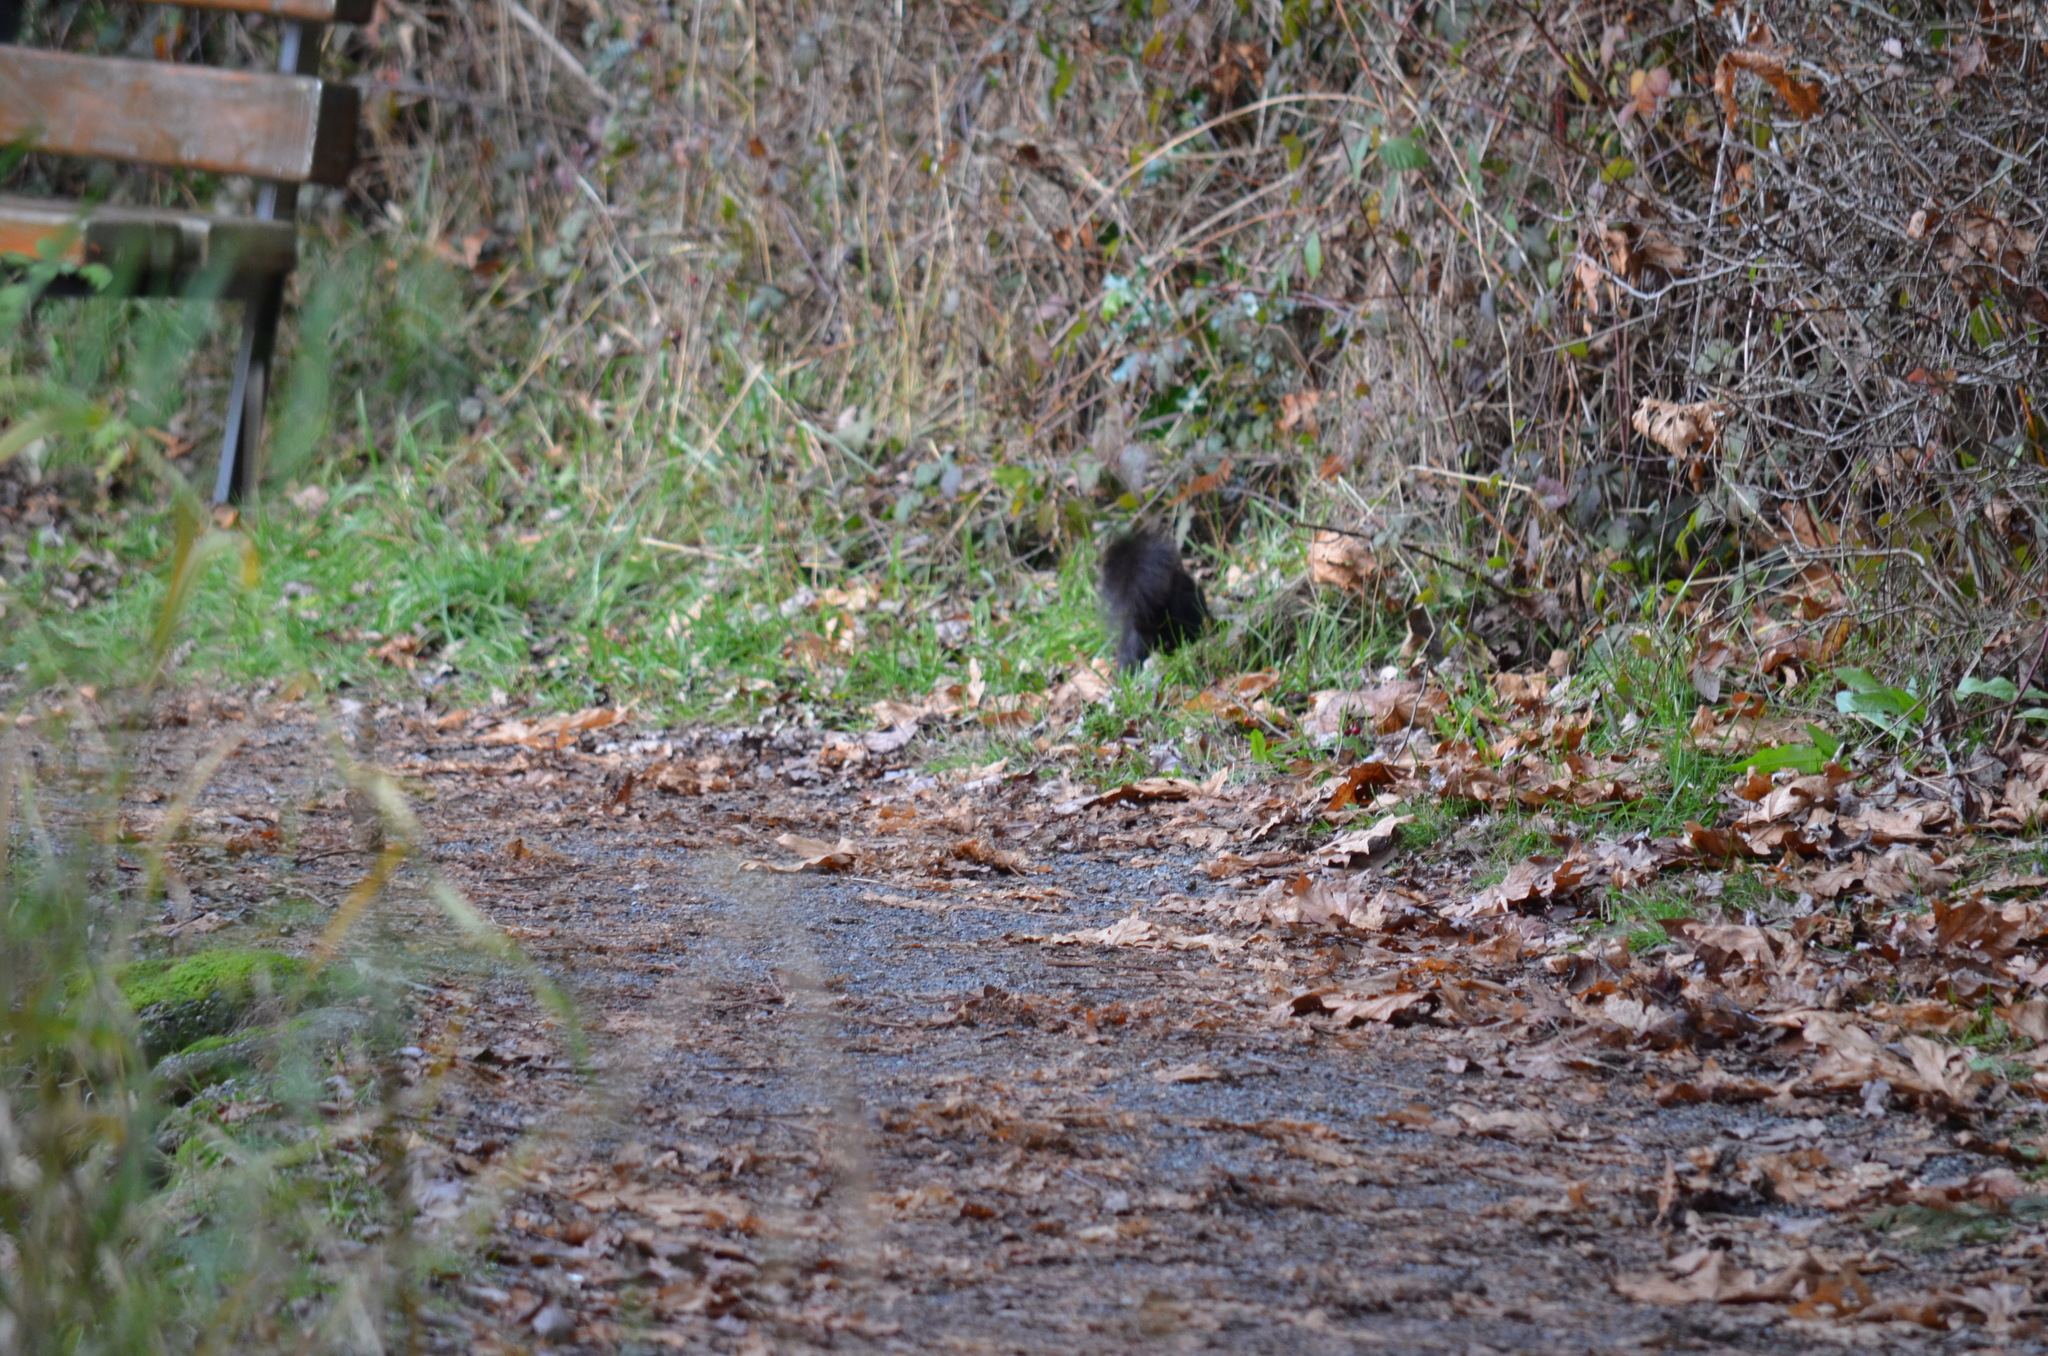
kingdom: Animalia
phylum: Chordata
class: Mammalia
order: Rodentia
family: Sciuridae
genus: Sciurus
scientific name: Sciurus carolinensis
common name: Eastern gray squirrel
